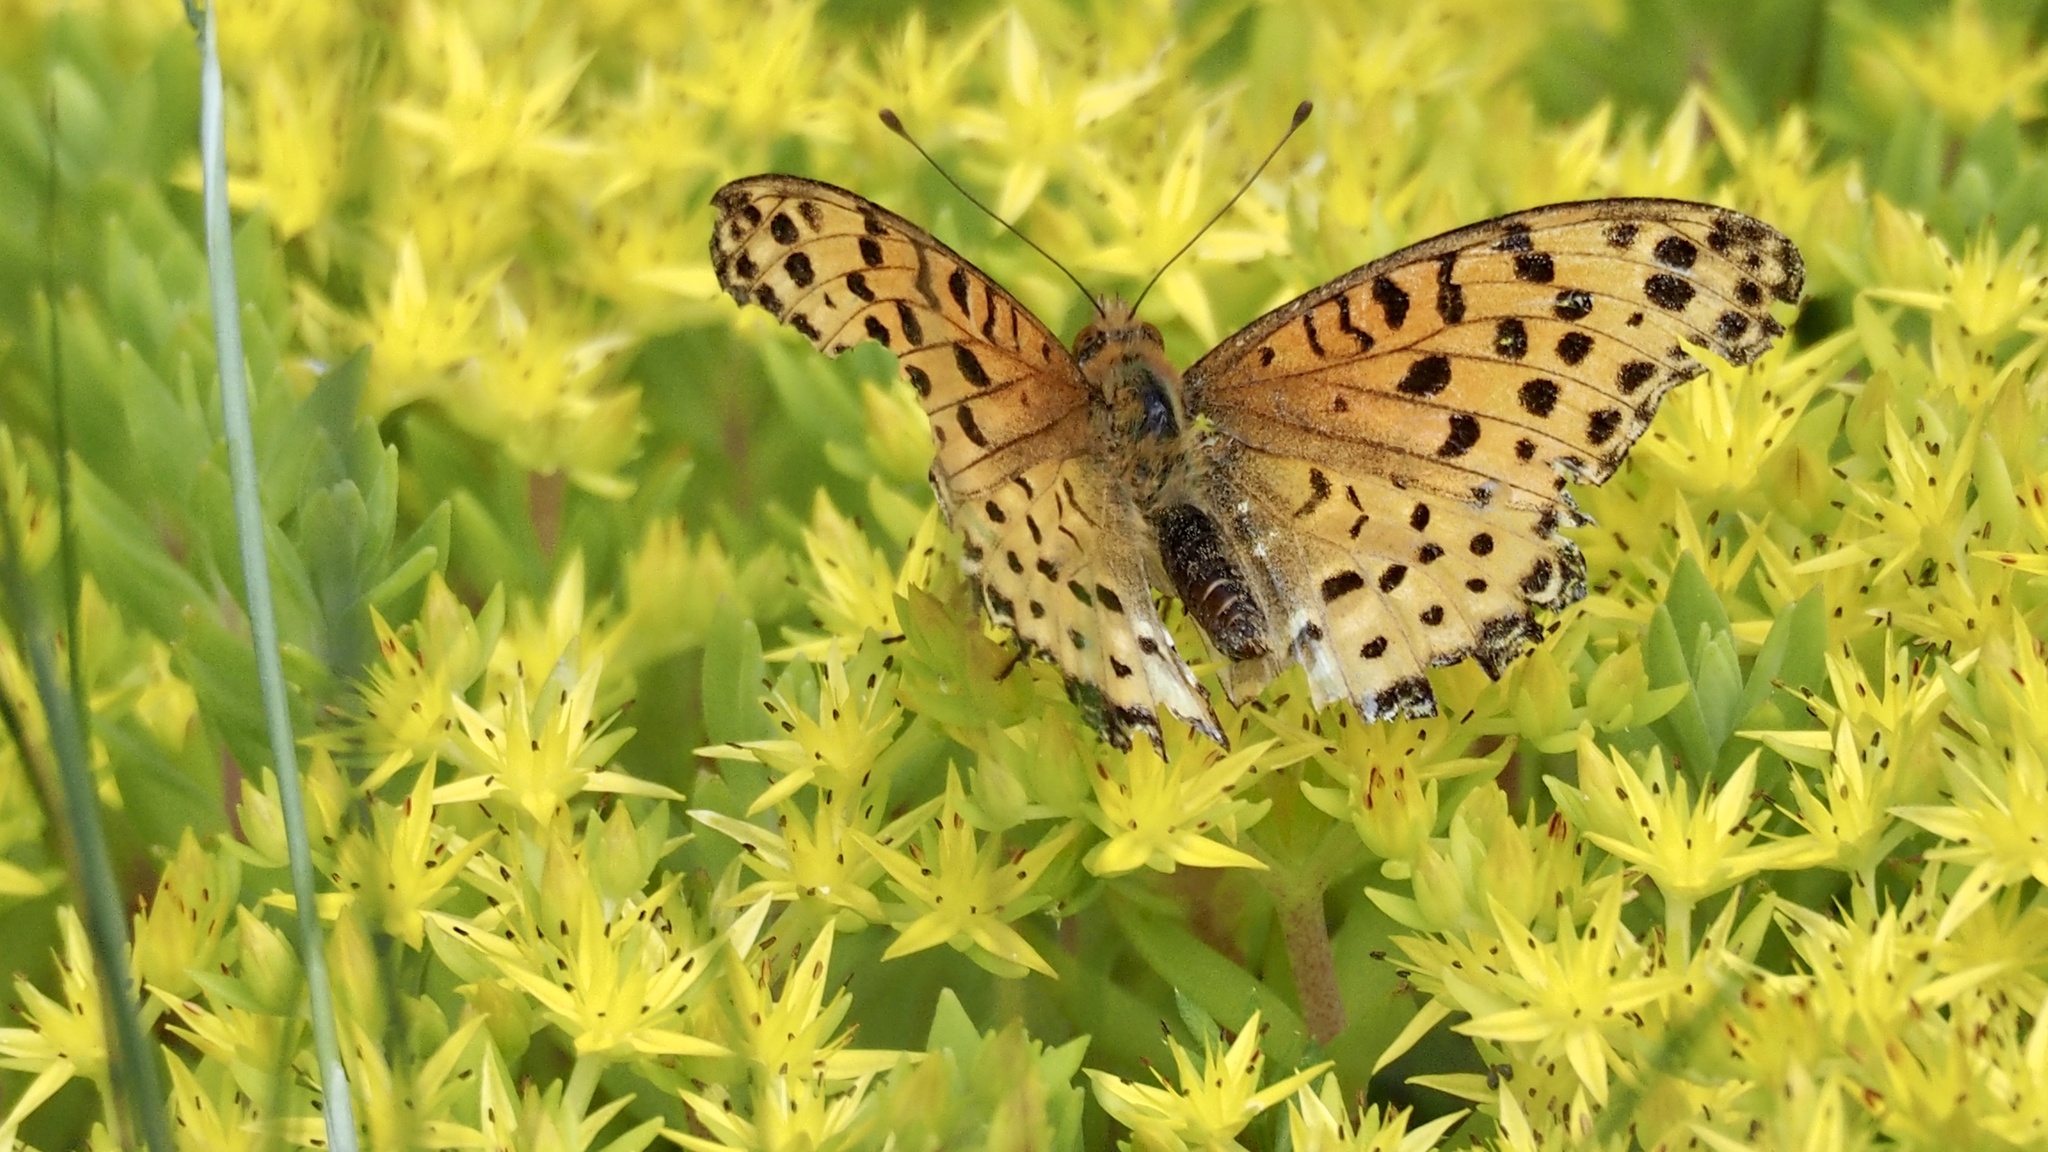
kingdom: Animalia
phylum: Arthropoda
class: Insecta
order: Lepidoptera
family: Nymphalidae
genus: Argynnis
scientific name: Argynnis hyperbius
